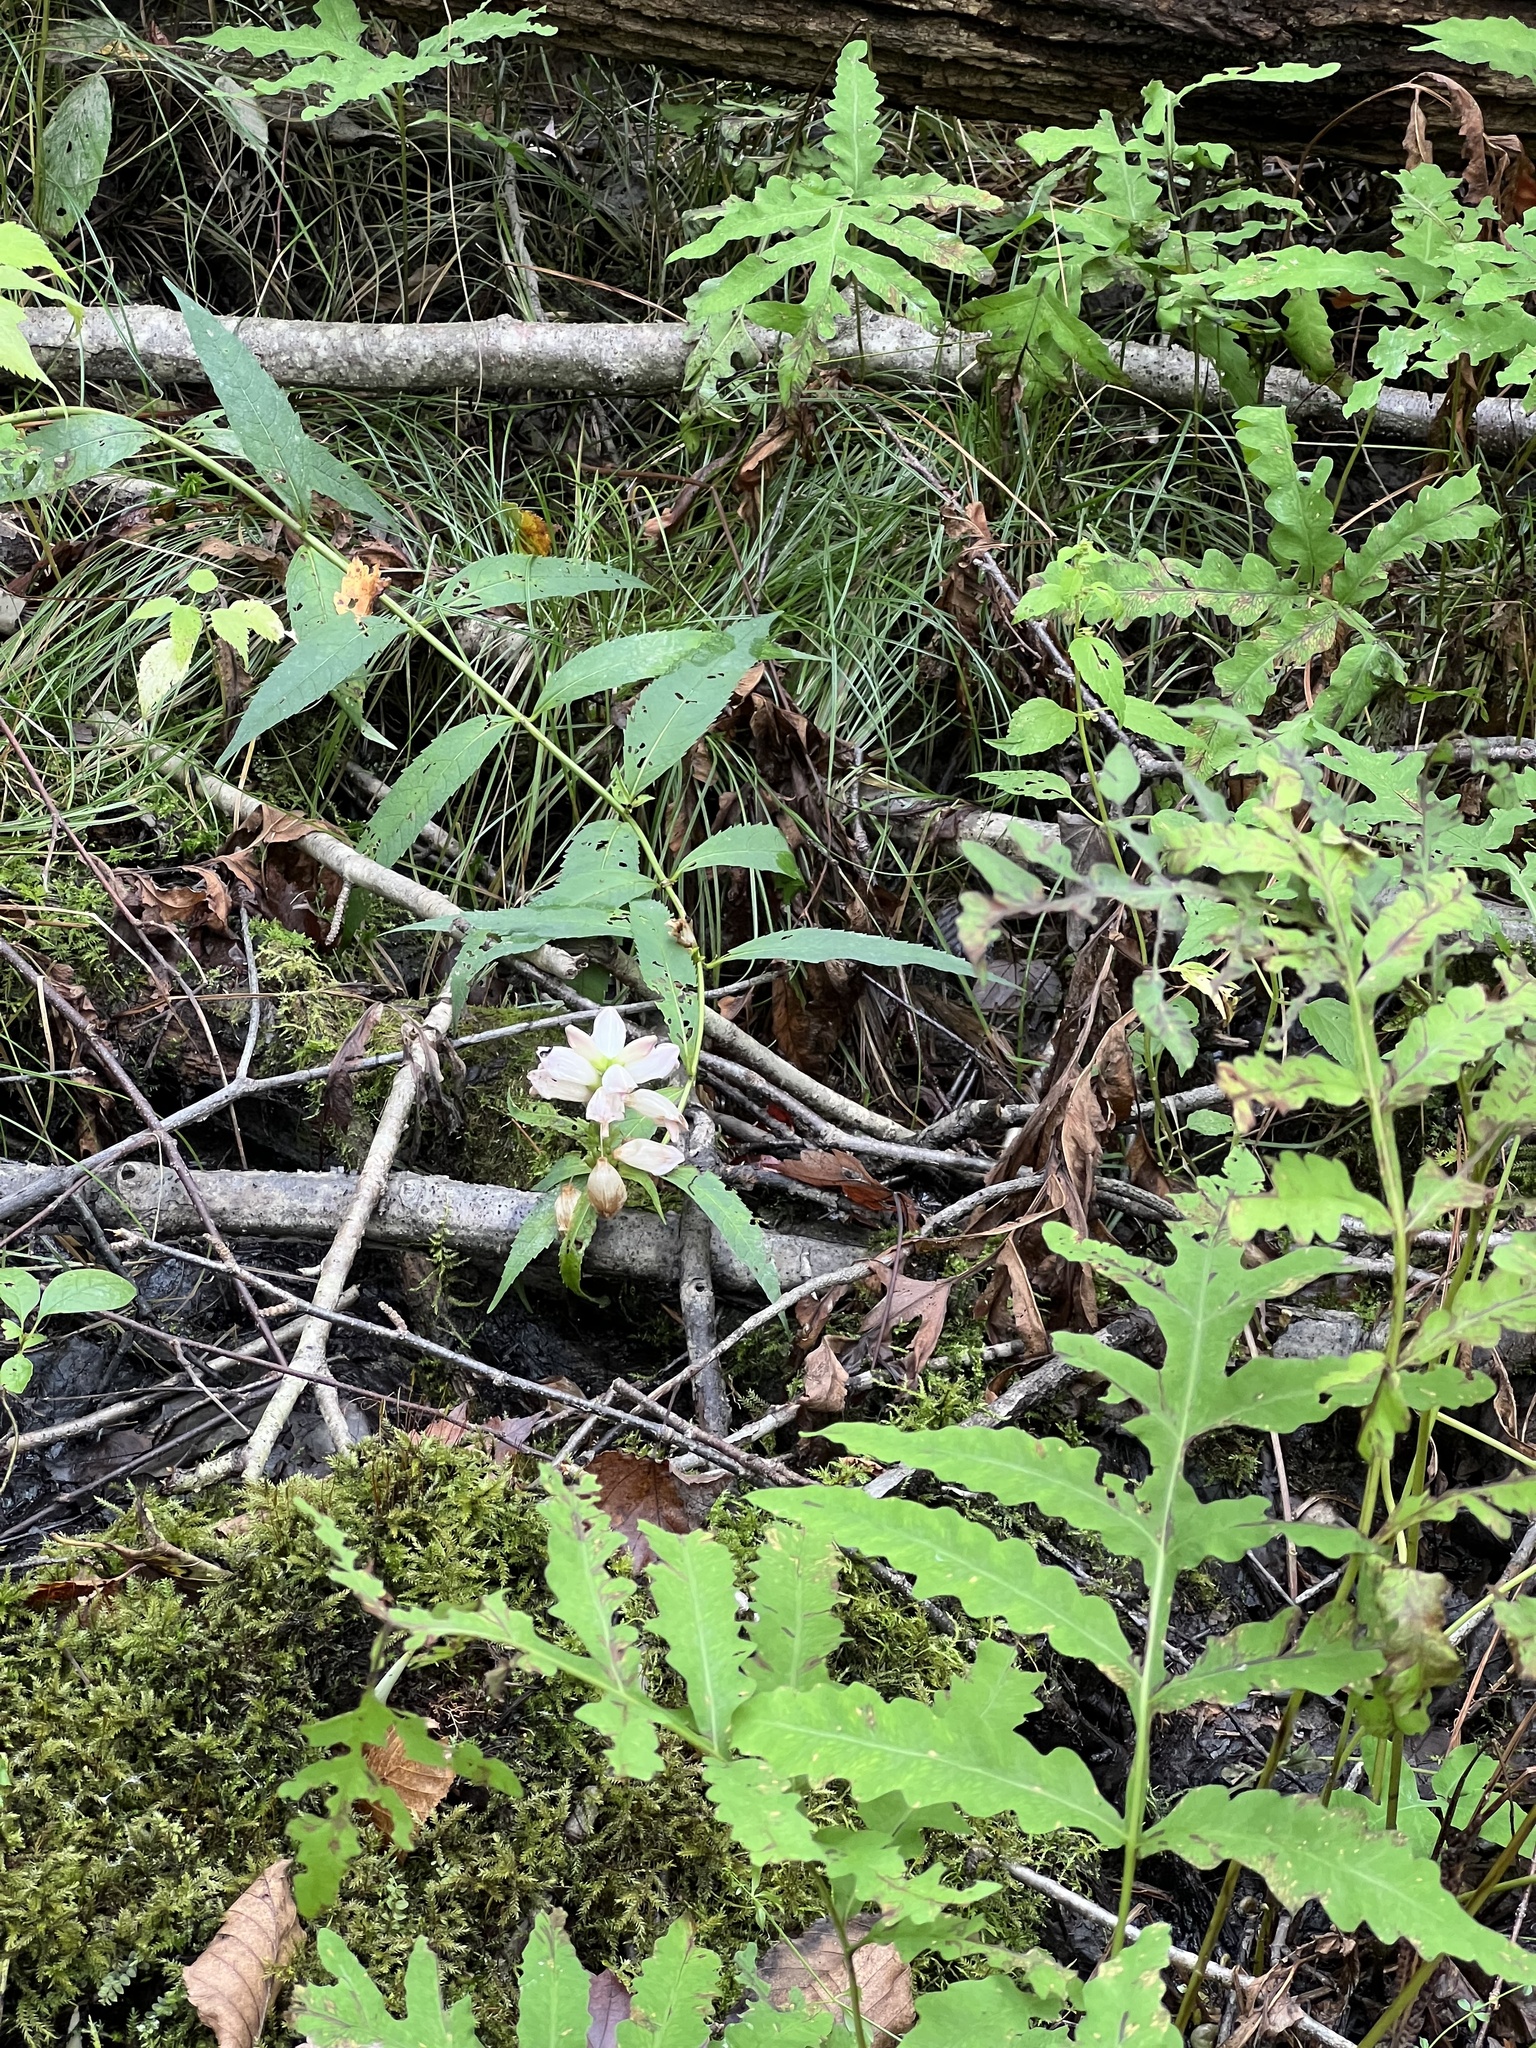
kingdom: Plantae
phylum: Tracheophyta
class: Magnoliopsida
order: Lamiales
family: Plantaginaceae
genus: Chelone
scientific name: Chelone glabra
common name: Snakehead
